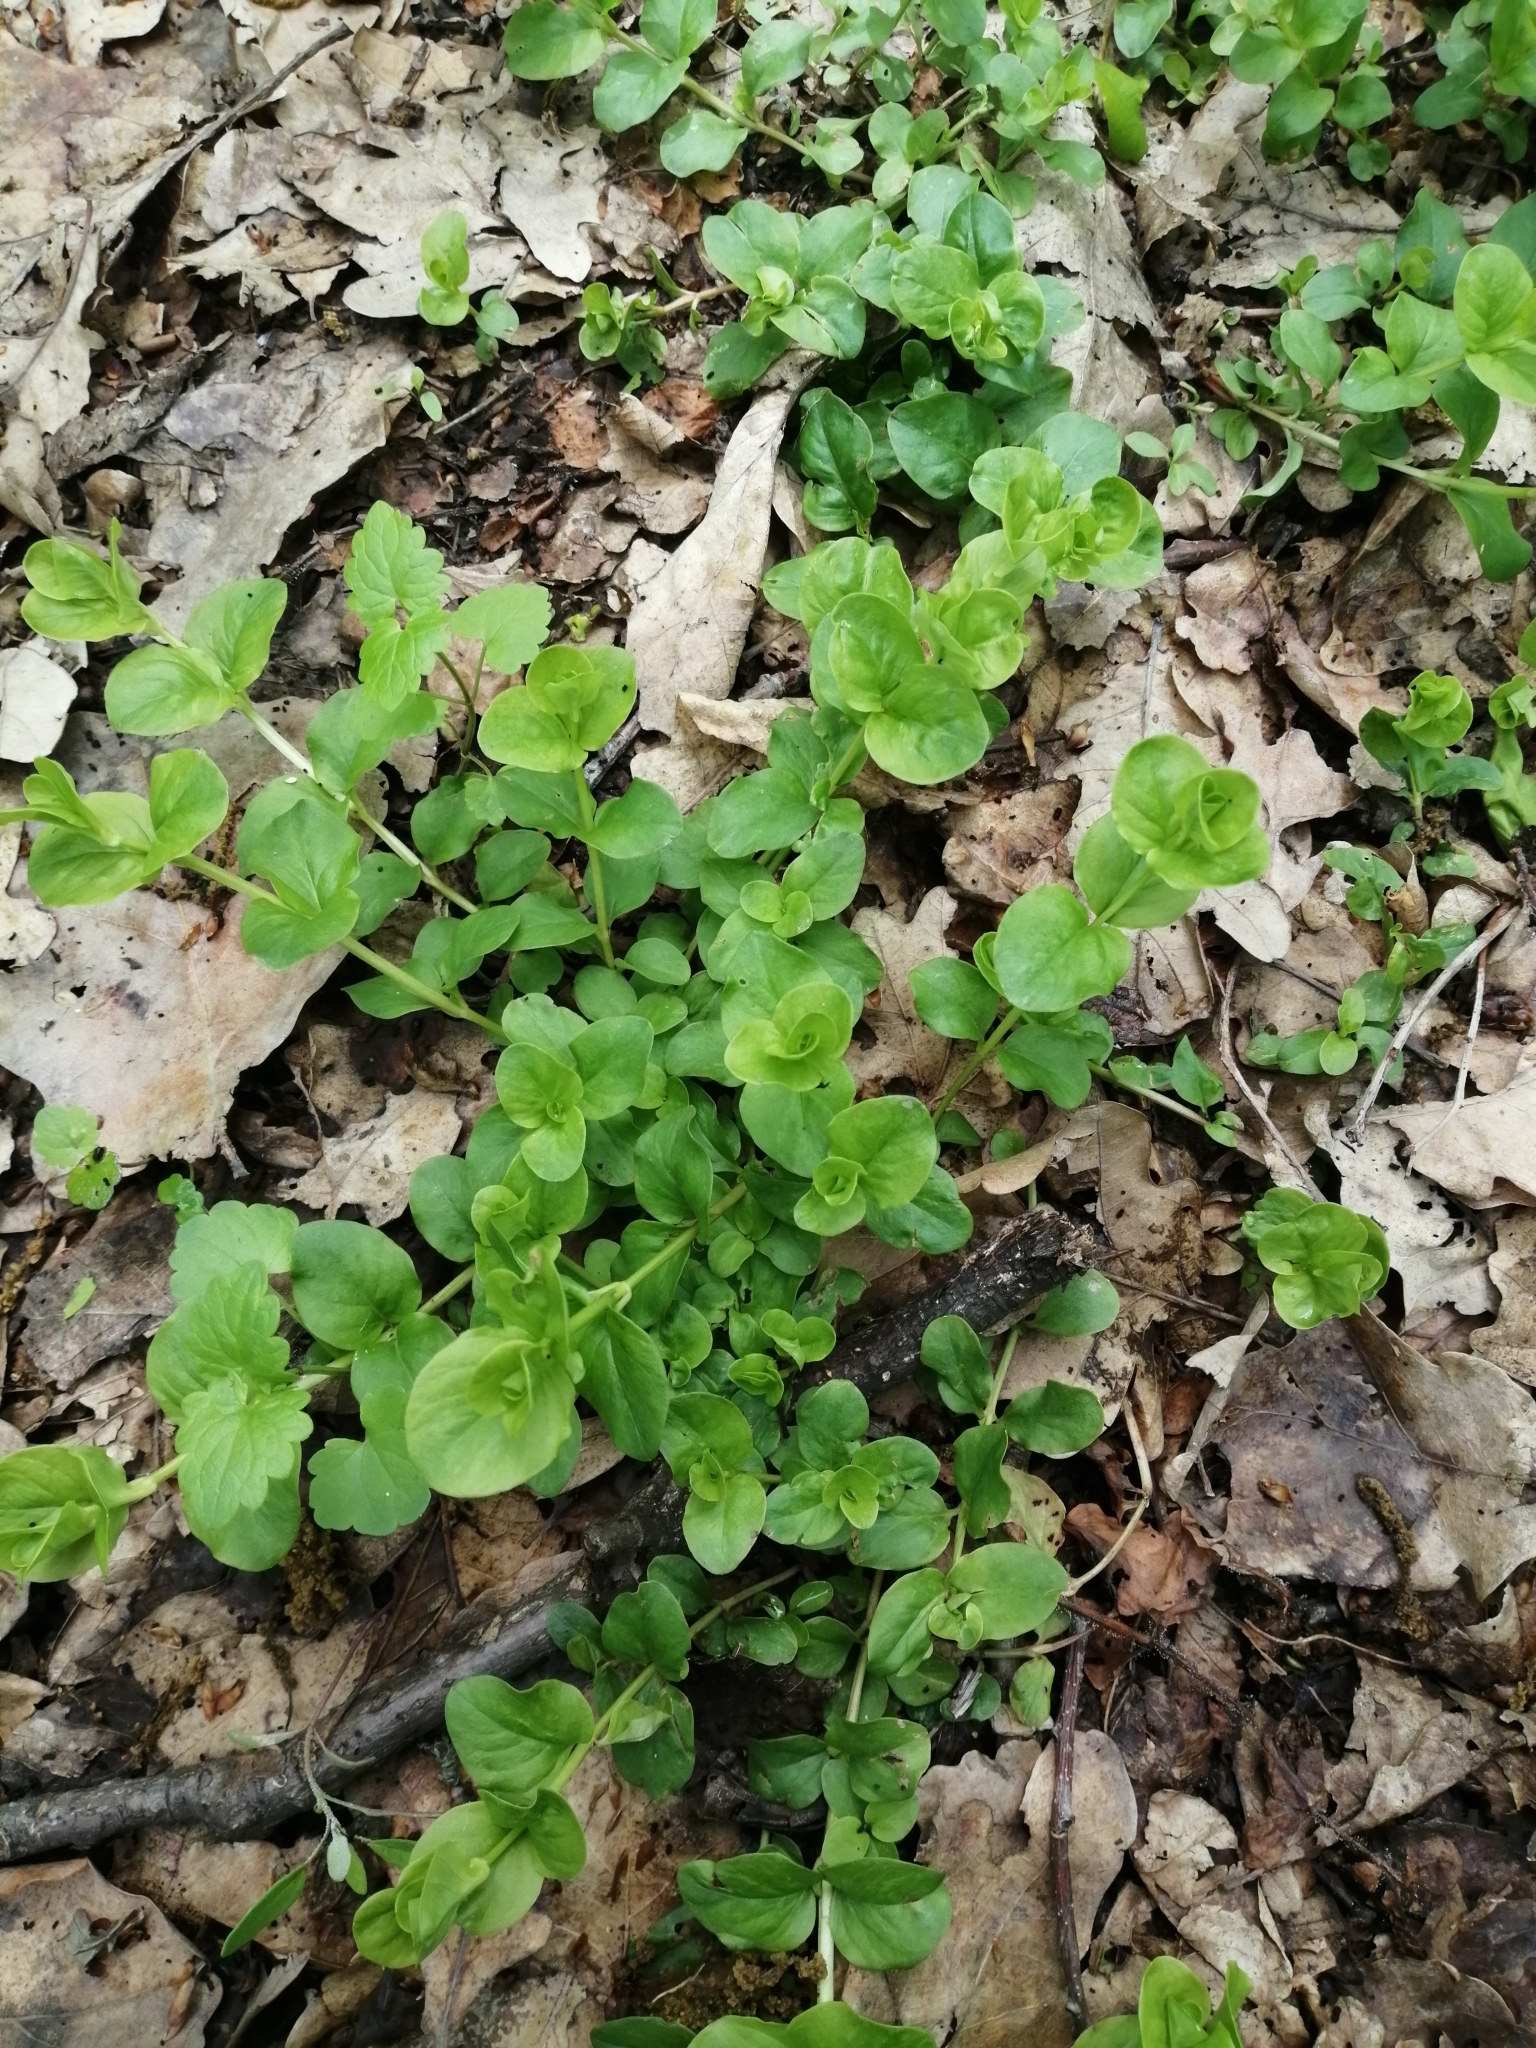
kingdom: Plantae
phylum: Tracheophyta
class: Magnoliopsida
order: Ericales
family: Primulaceae
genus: Lysimachia
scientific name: Lysimachia nummularia
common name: Moneywort
